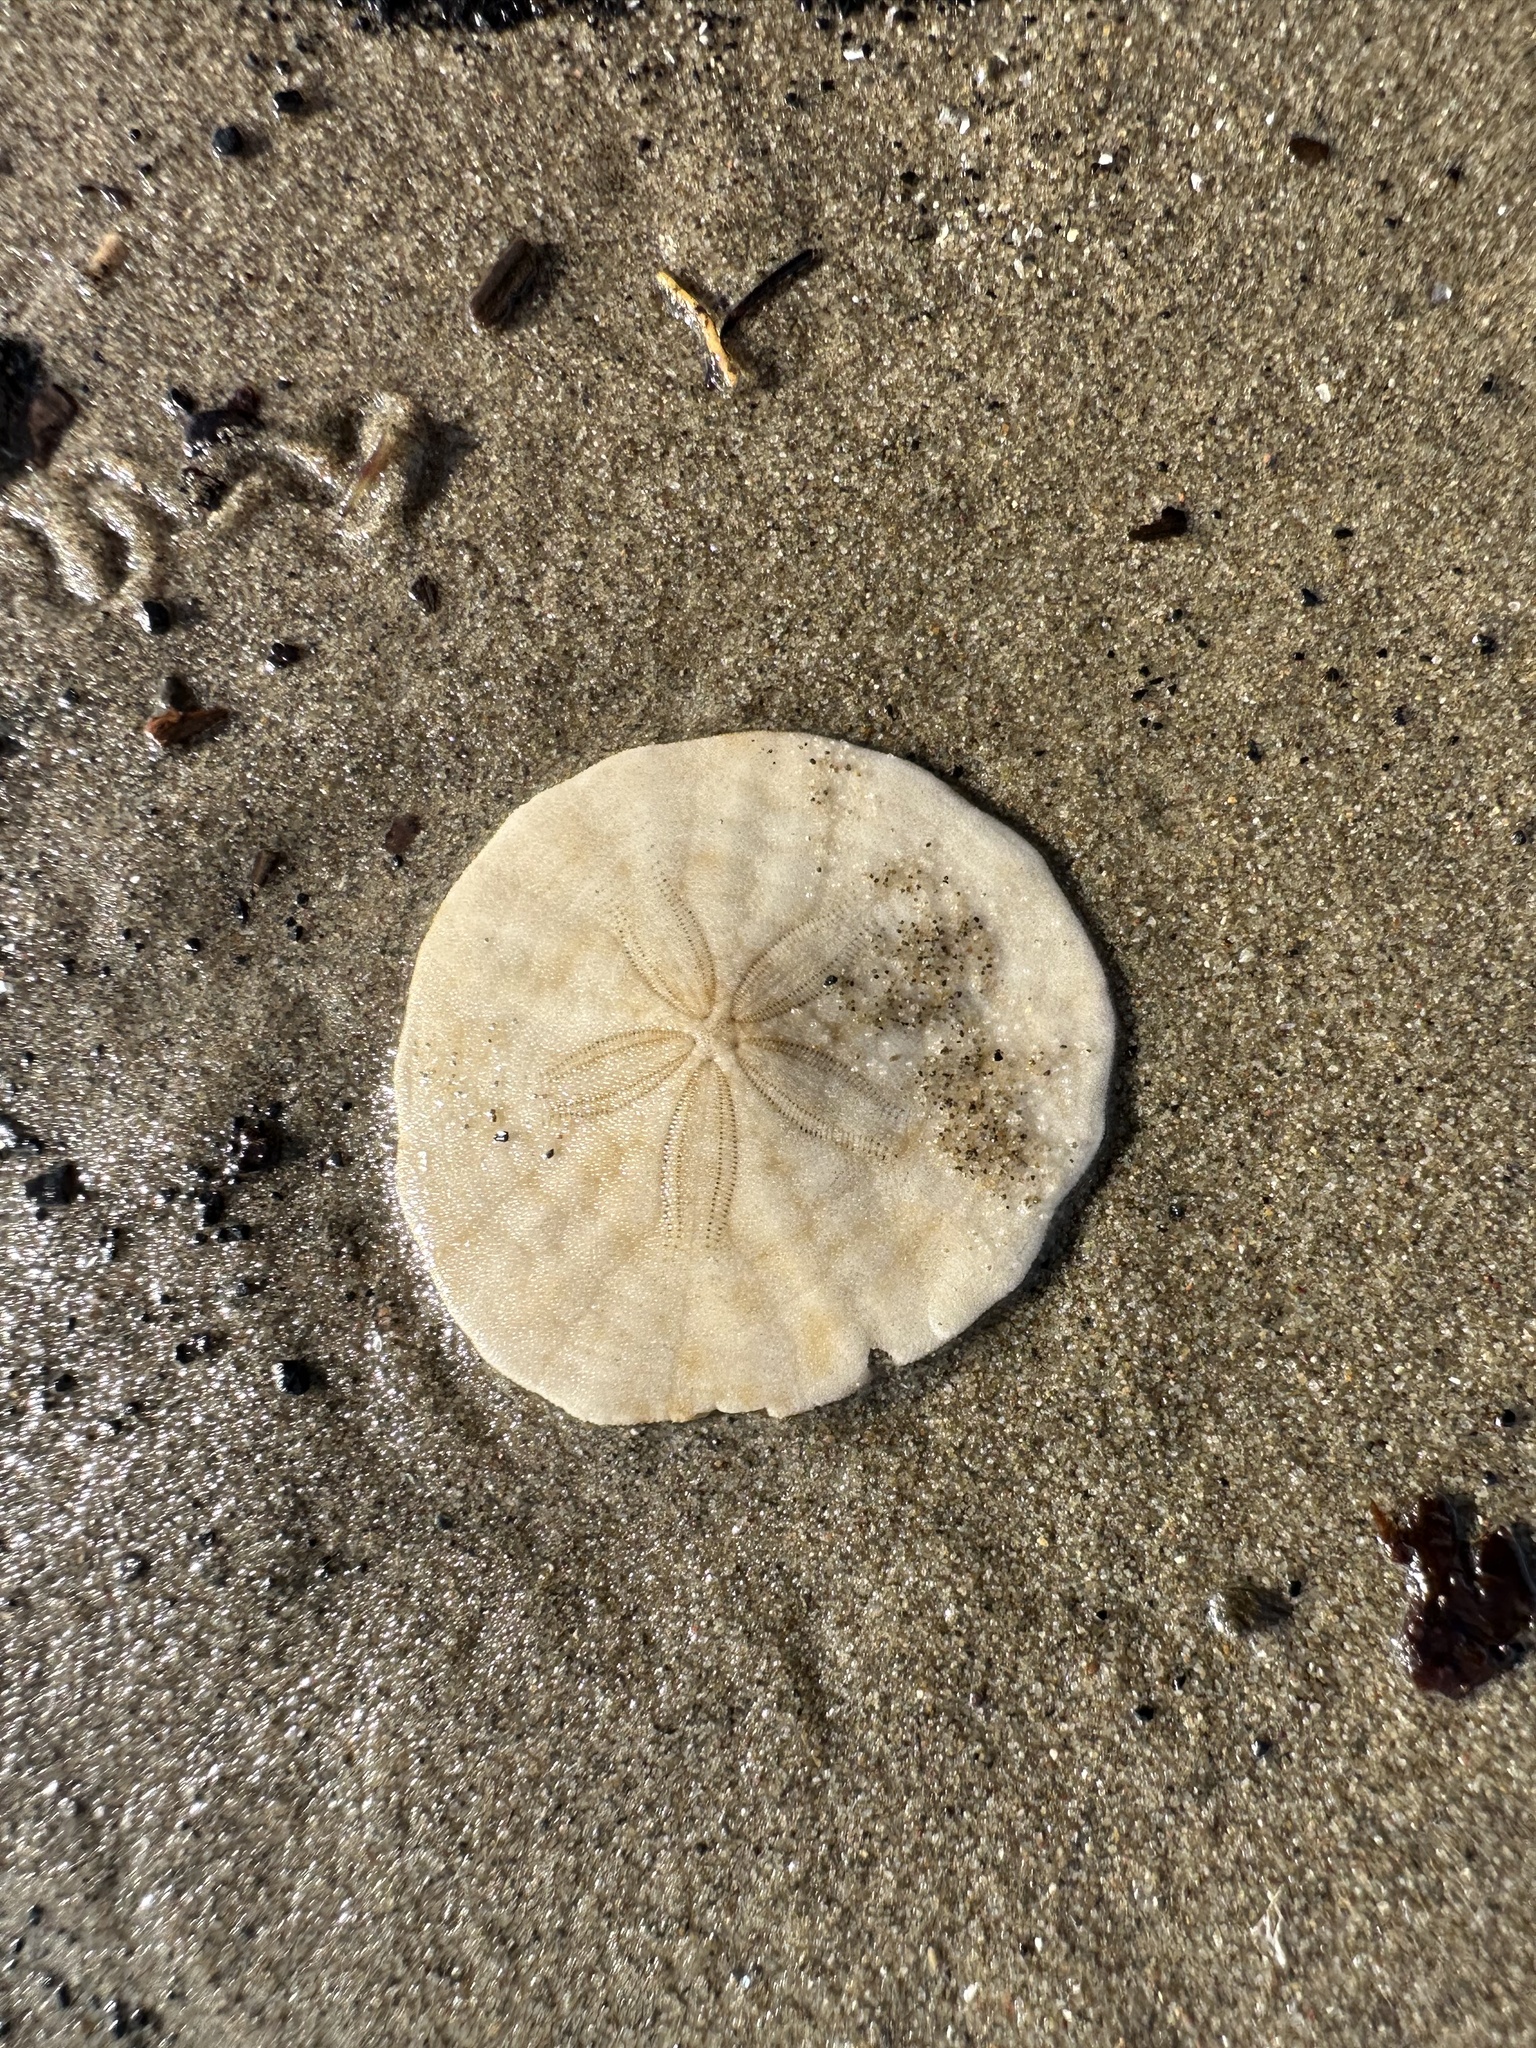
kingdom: Animalia
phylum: Echinodermata
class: Echinoidea
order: Echinolampadacea
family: Echinarachniidae
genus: Echinarachnius
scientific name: Echinarachnius parma
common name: Common sand dollar
